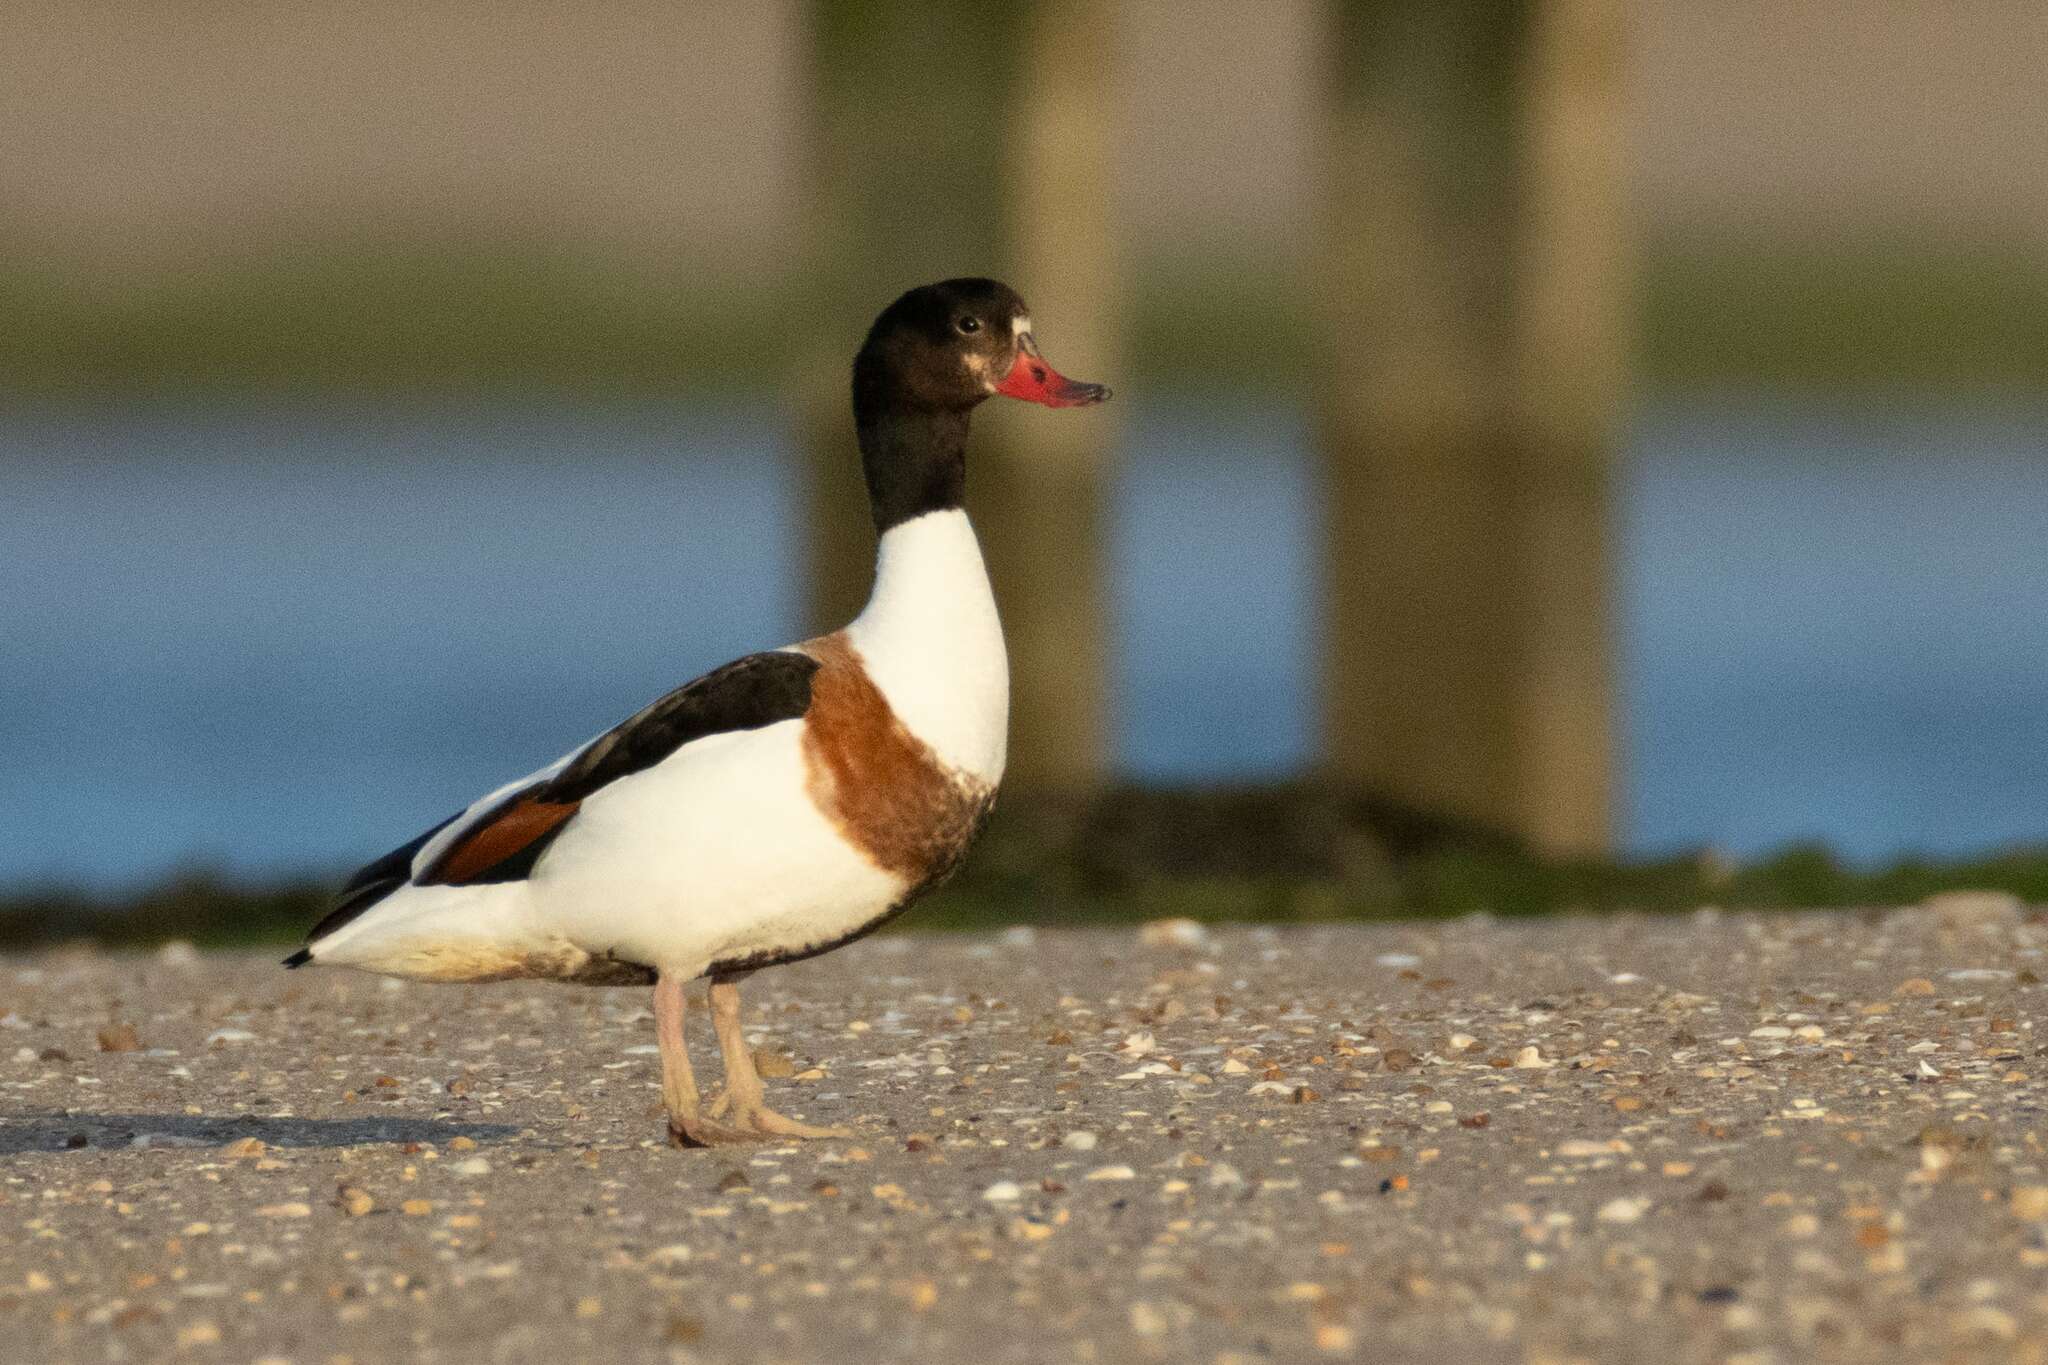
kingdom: Animalia
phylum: Chordata
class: Aves
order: Anseriformes
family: Anatidae
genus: Tadorna
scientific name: Tadorna tadorna
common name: Common shelduck
